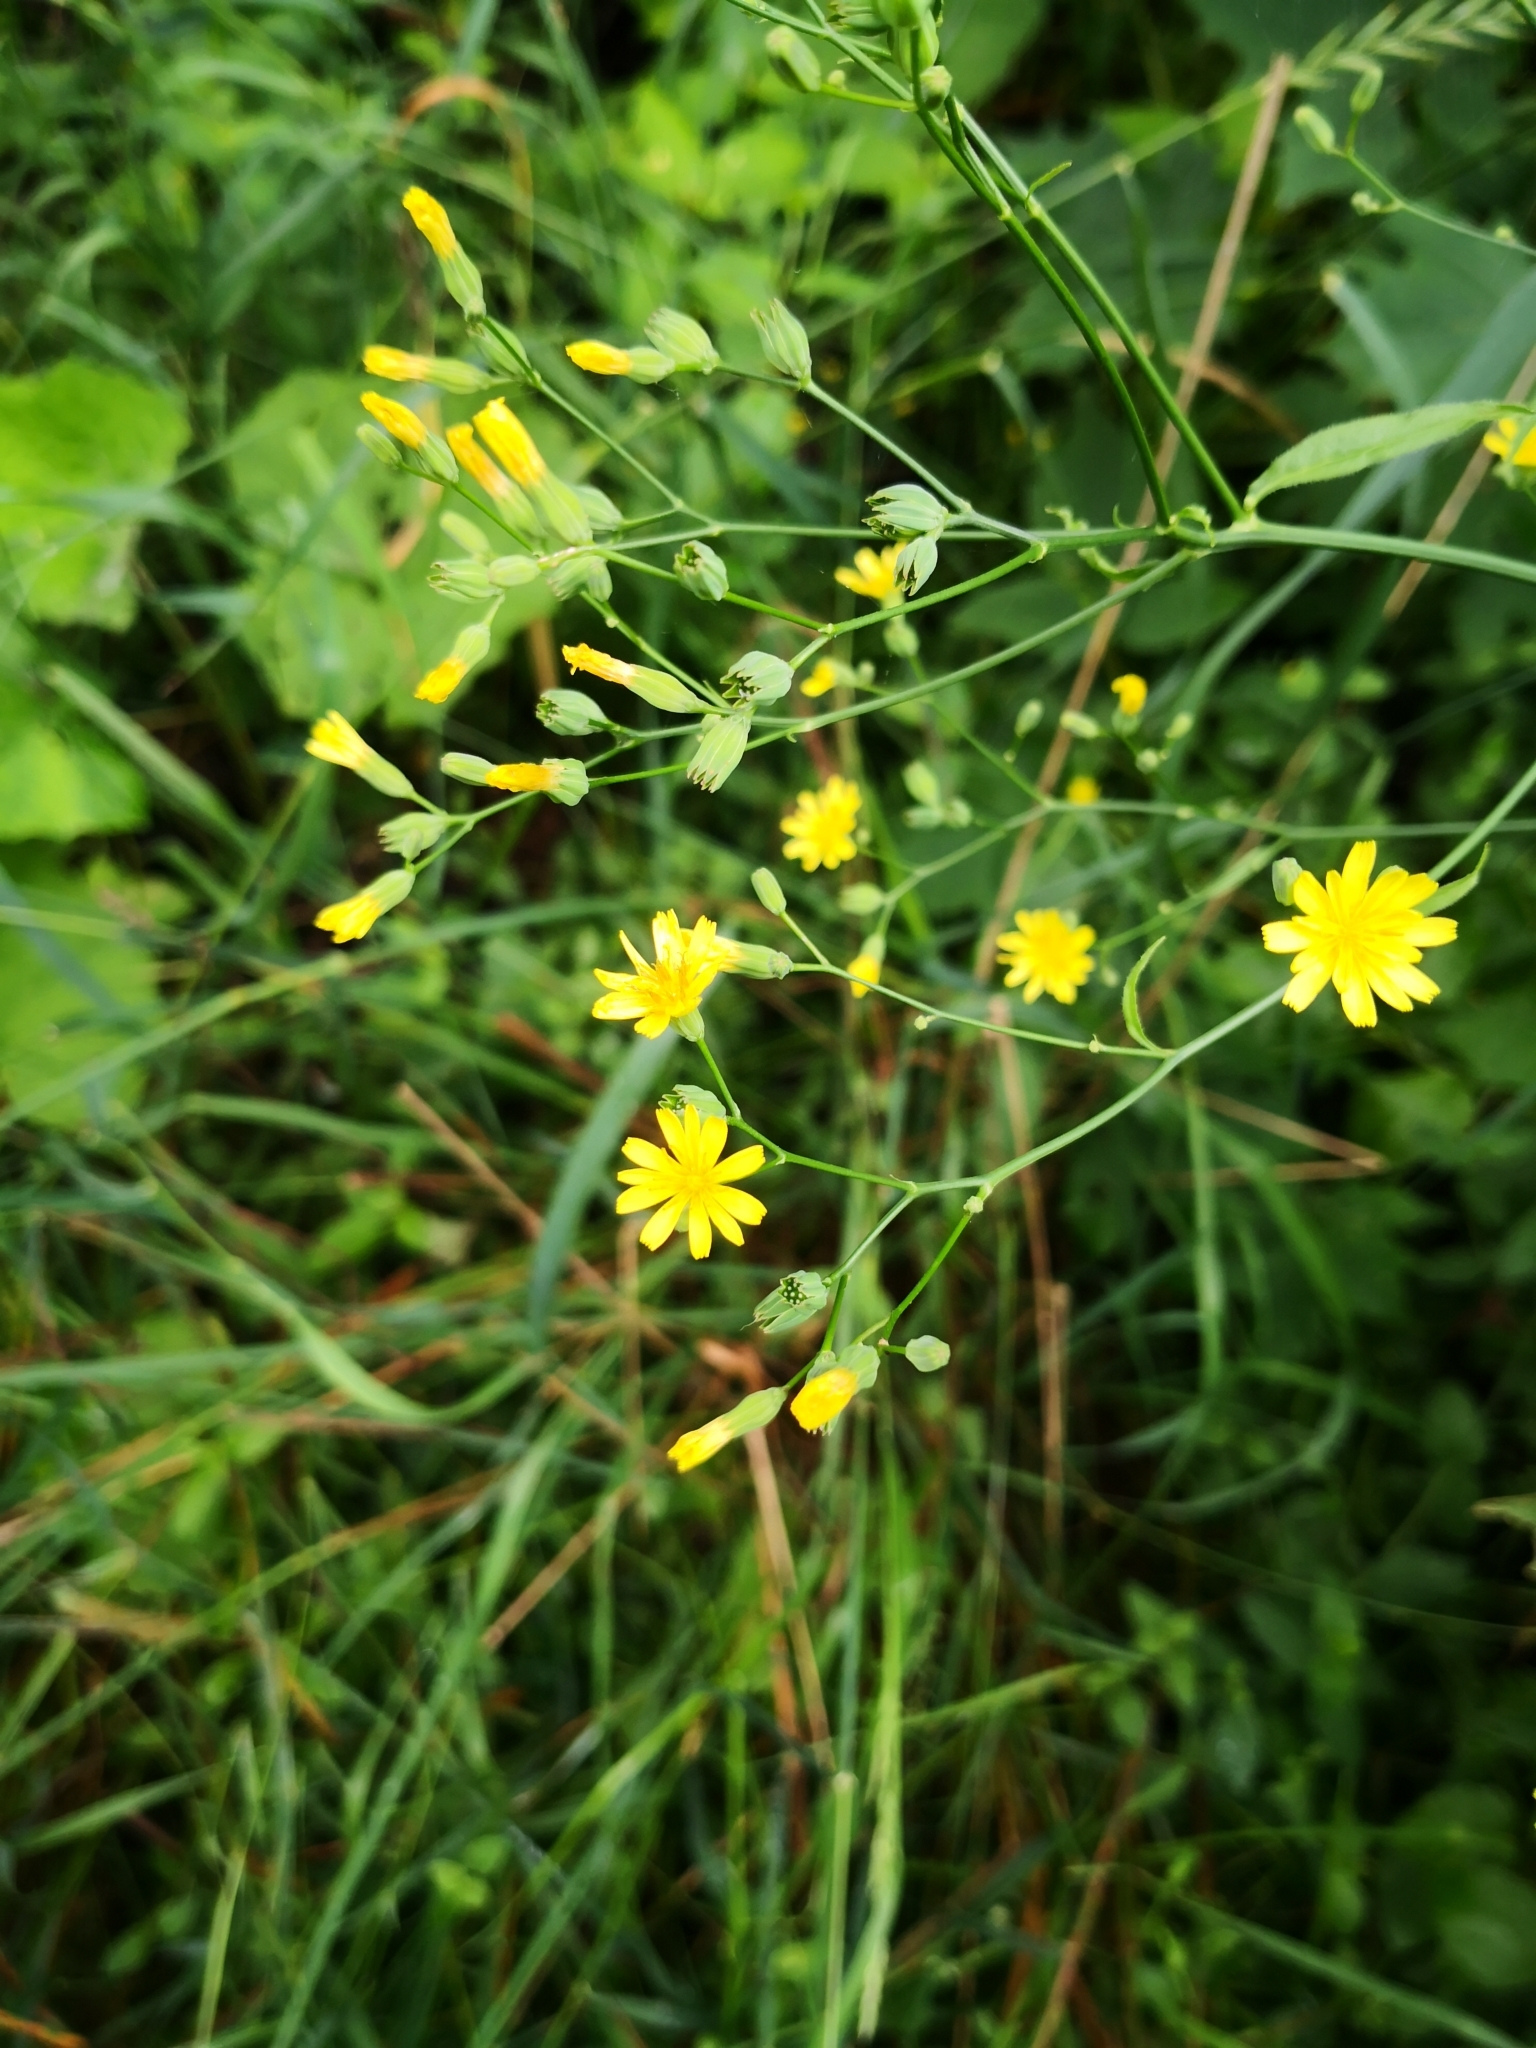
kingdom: Plantae
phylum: Tracheophyta
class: Magnoliopsida
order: Asterales
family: Asteraceae
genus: Lapsana
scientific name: Lapsana communis
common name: Nipplewort
